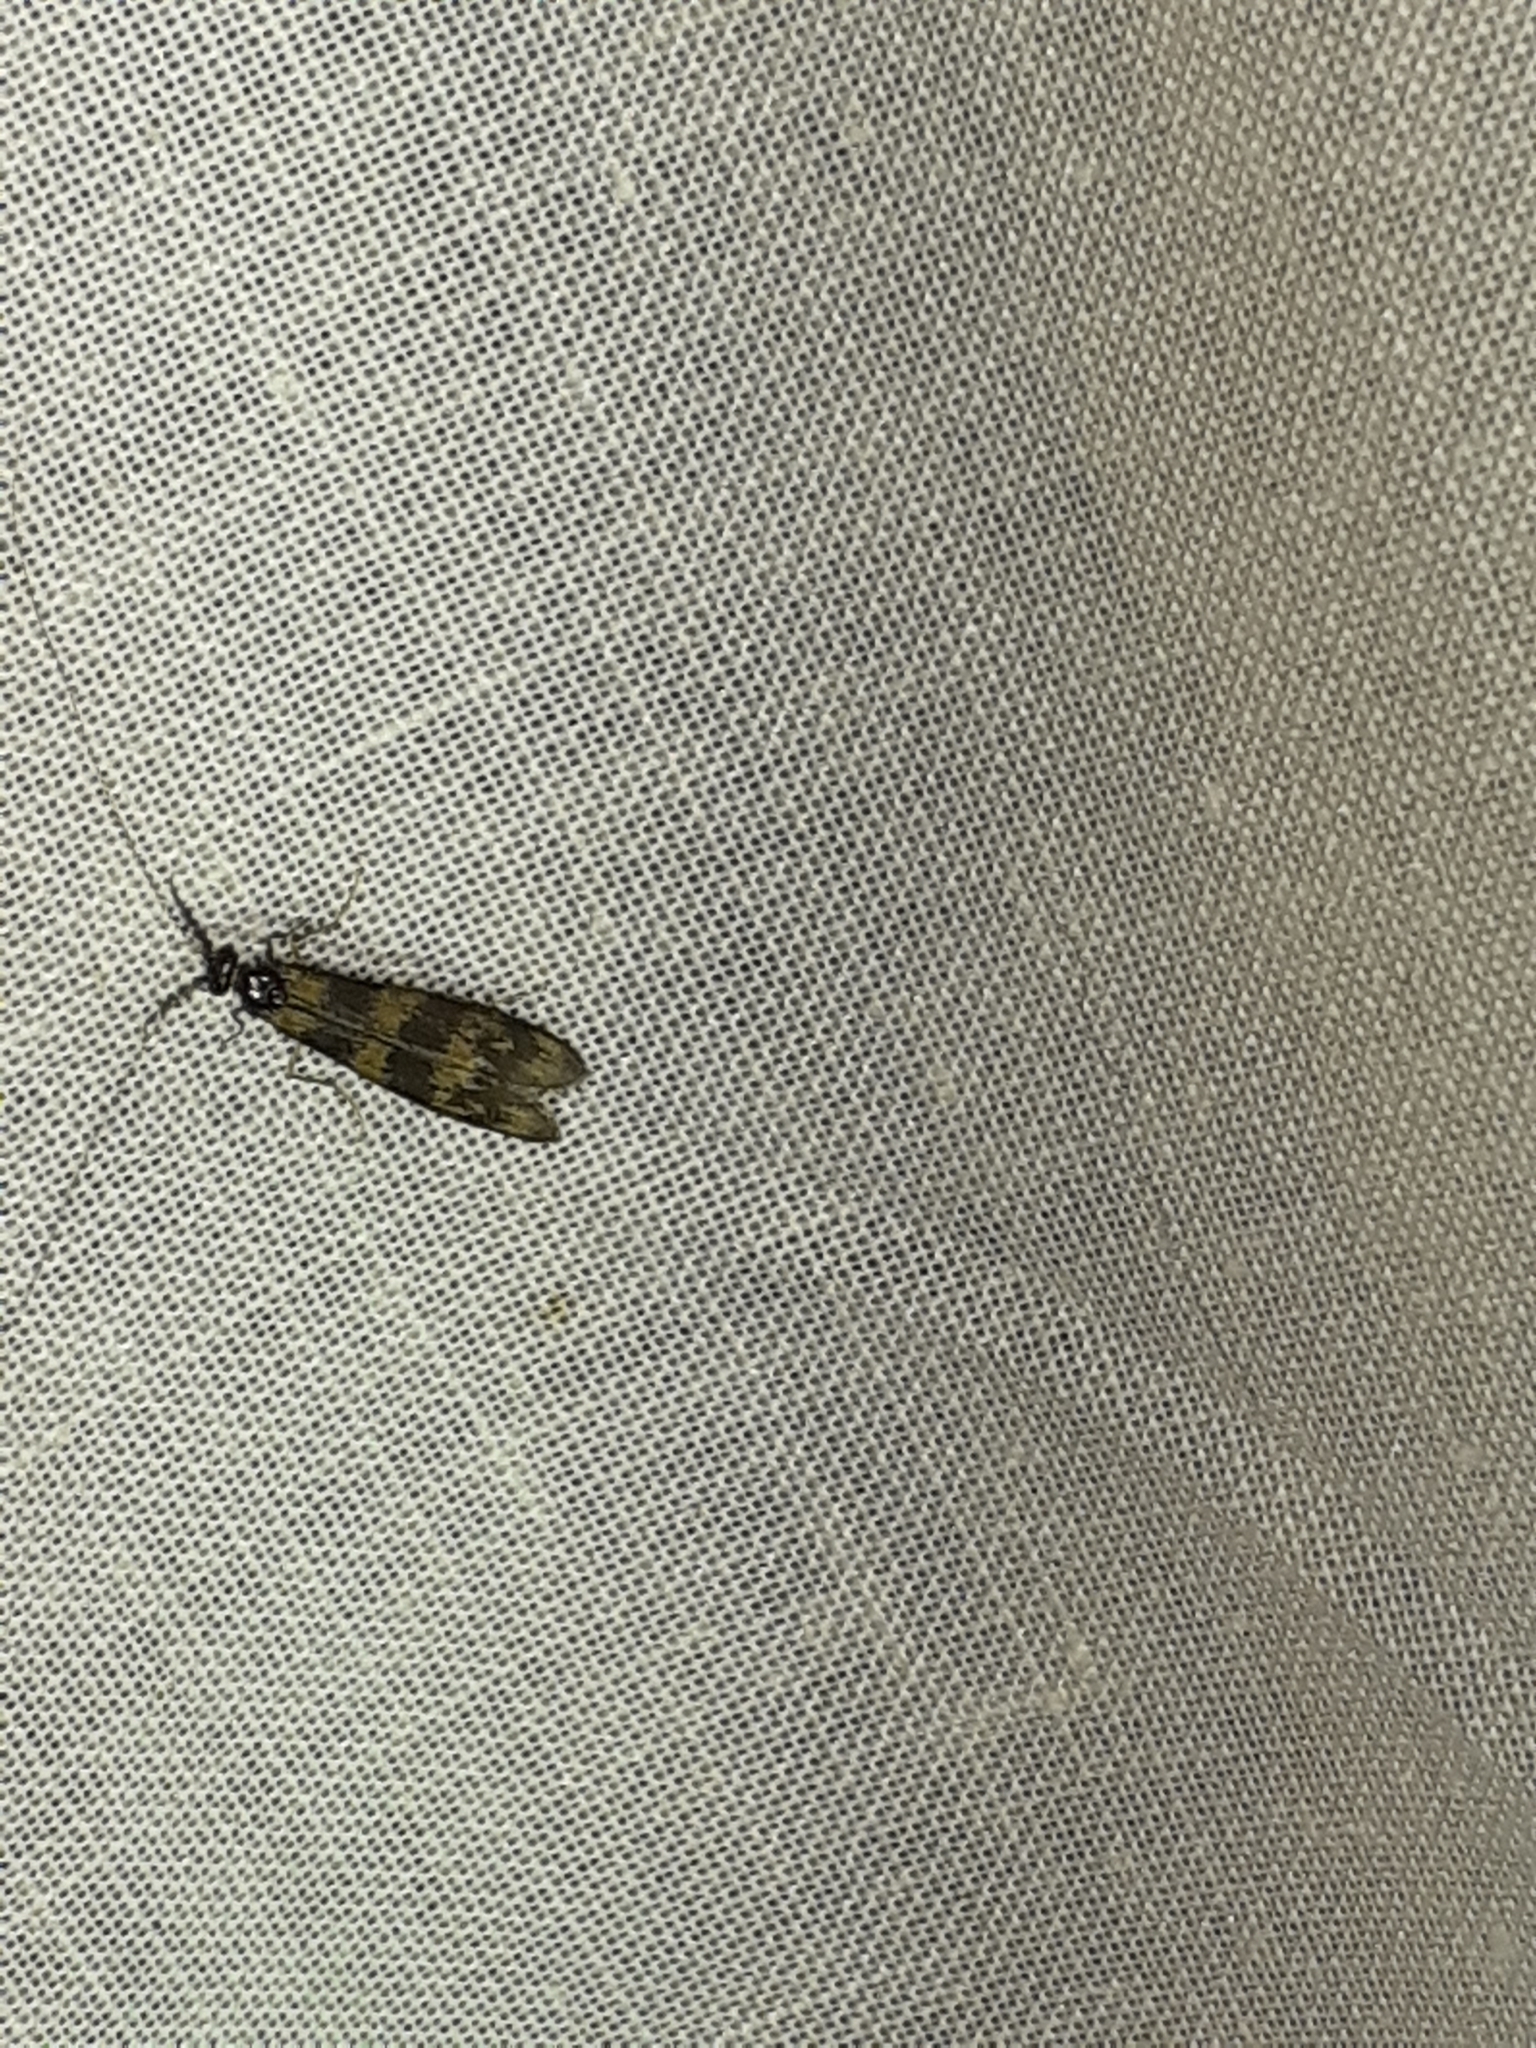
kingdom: Animalia
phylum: Arthropoda
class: Insecta
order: Trichoptera
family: Leptoceridae
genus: Mystacides
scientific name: Mystacides longicornis
